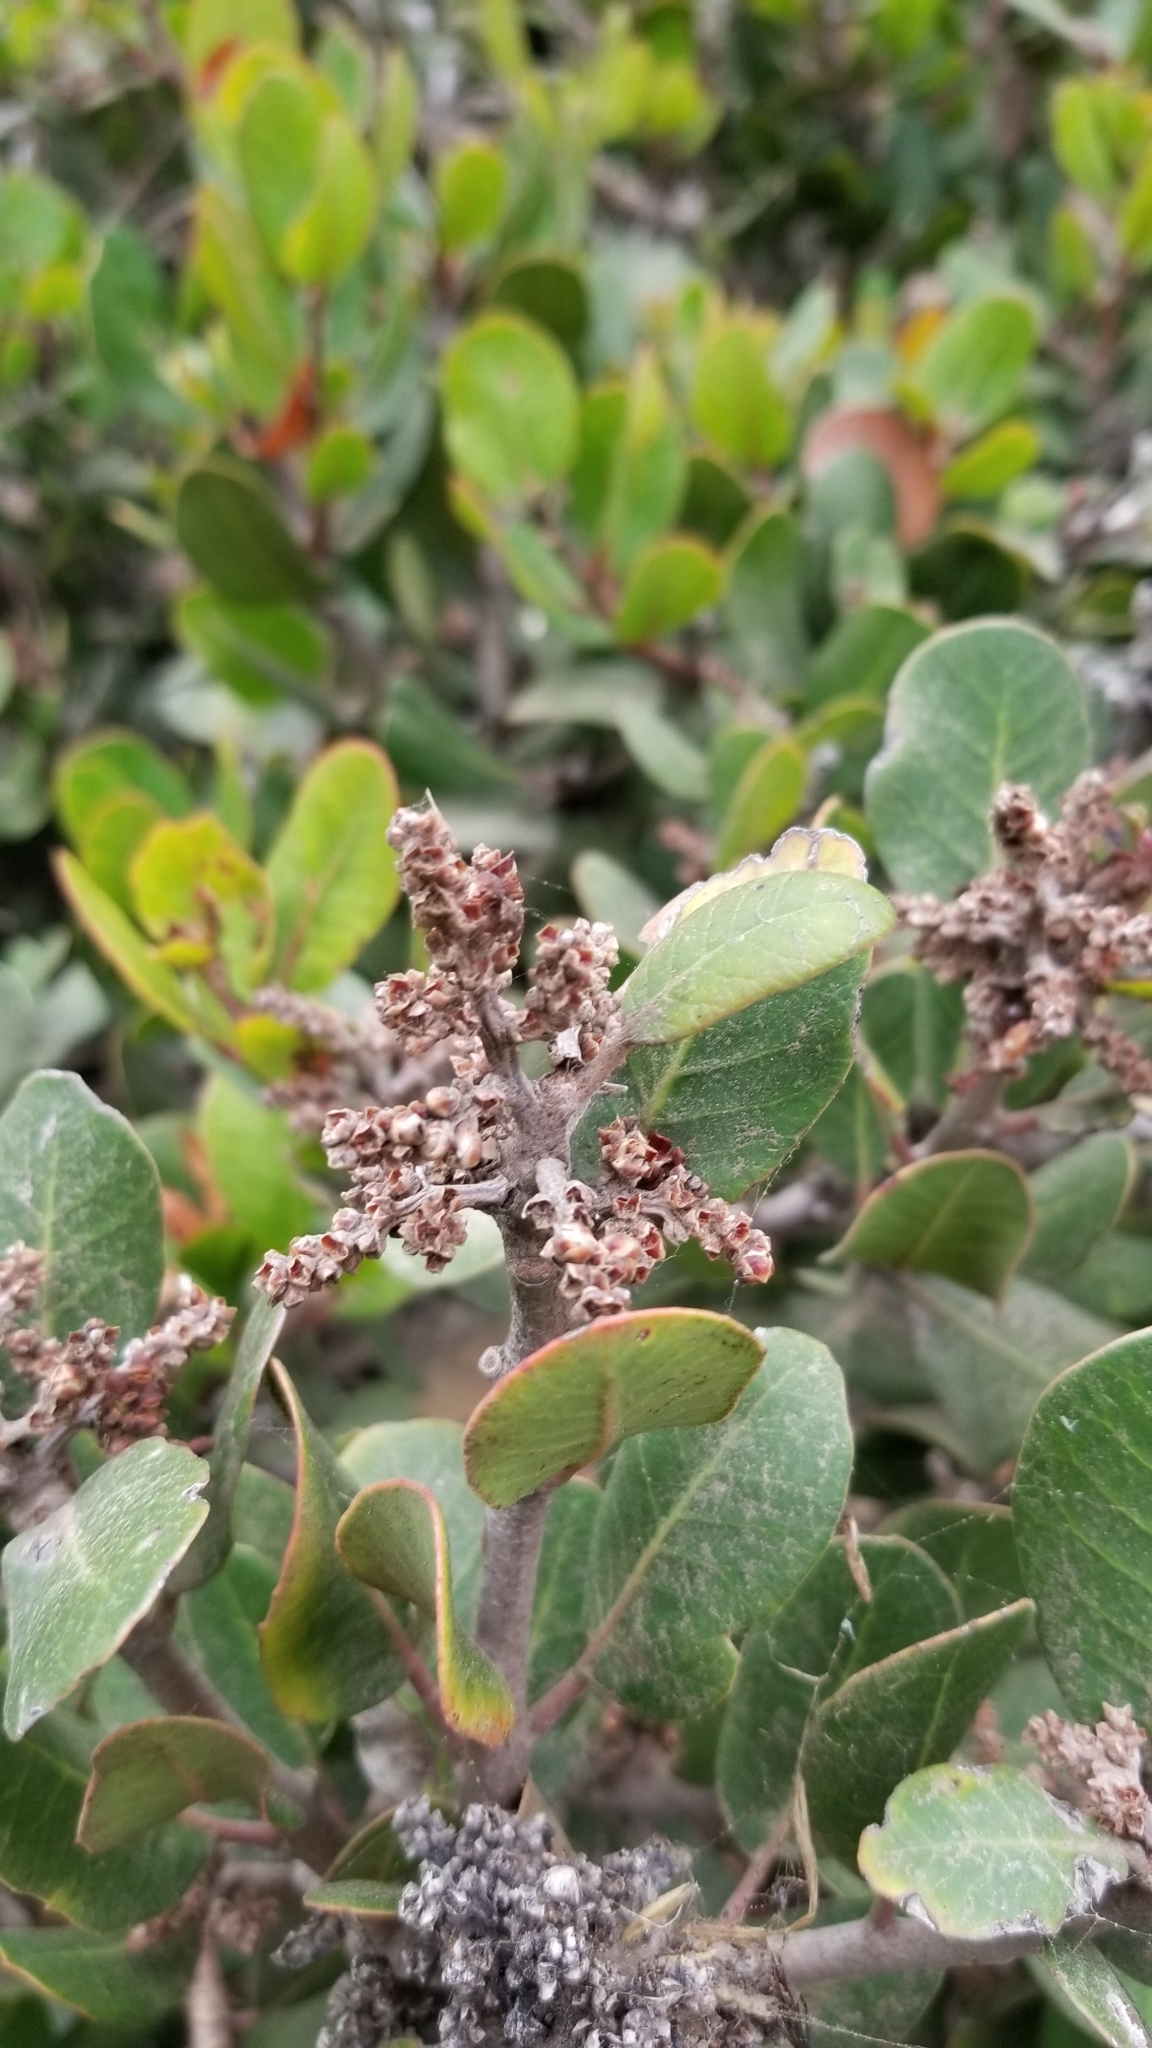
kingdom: Plantae
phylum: Tracheophyta
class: Magnoliopsida
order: Sapindales
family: Anacardiaceae
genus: Rhus
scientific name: Rhus integrifolia
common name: Lemonade sumac
